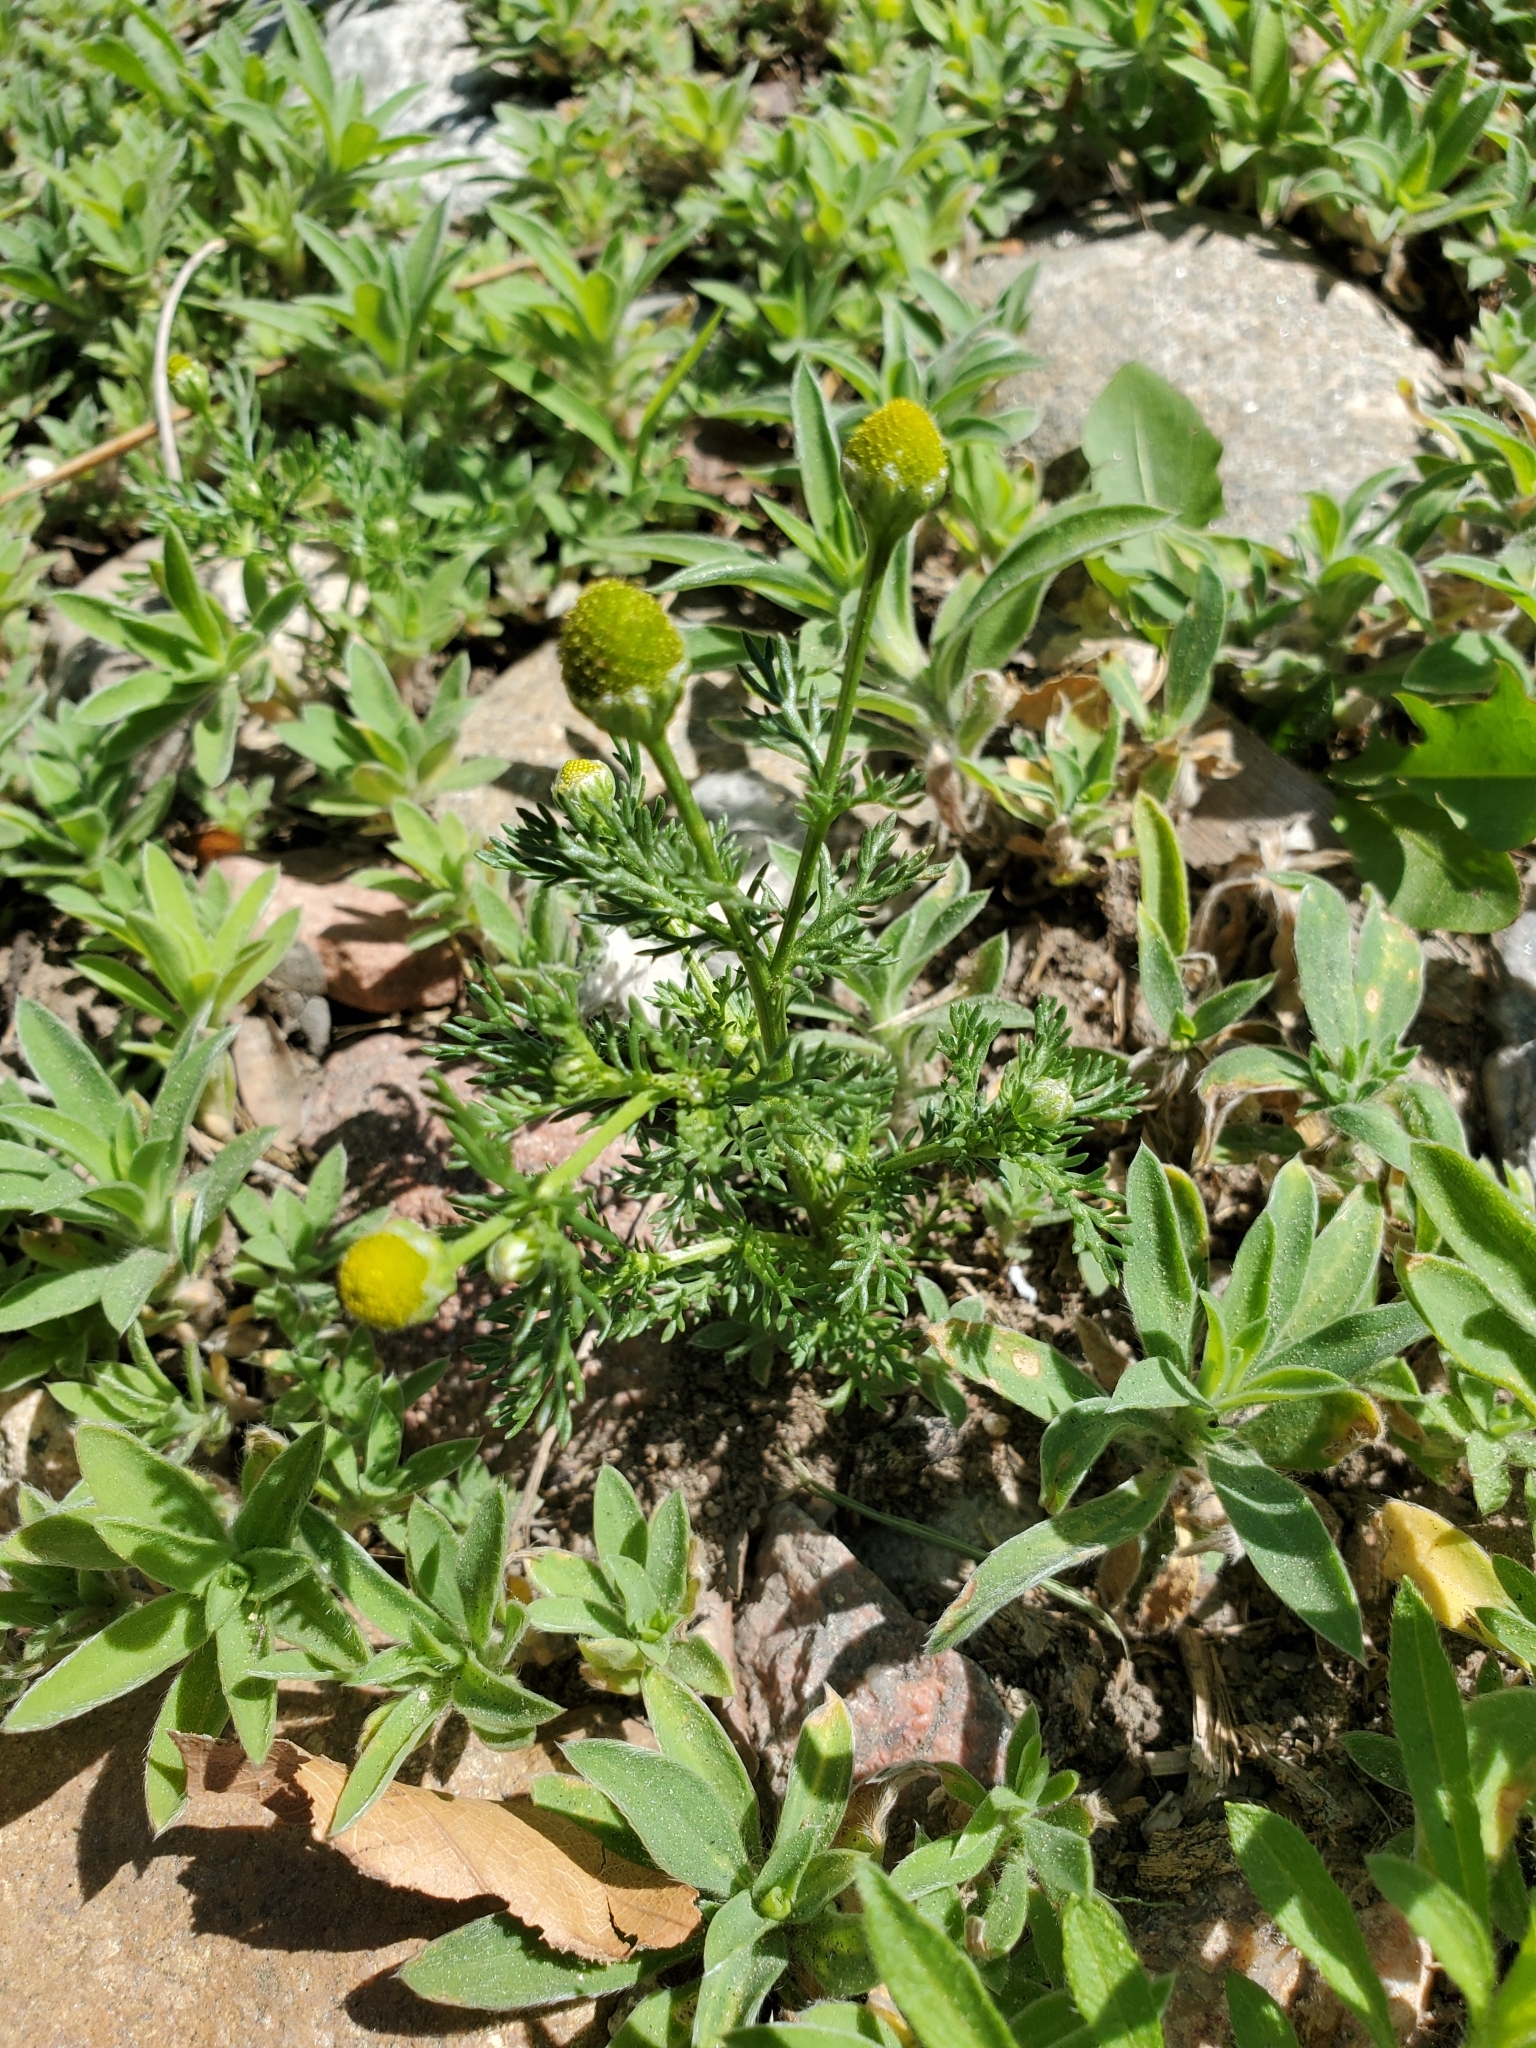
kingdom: Plantae
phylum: Tracheophyta
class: Magnoliopsida
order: Asterales
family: Asteraceae
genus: Matricaria
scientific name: Matricaria discoidea
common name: Disc mayweed
